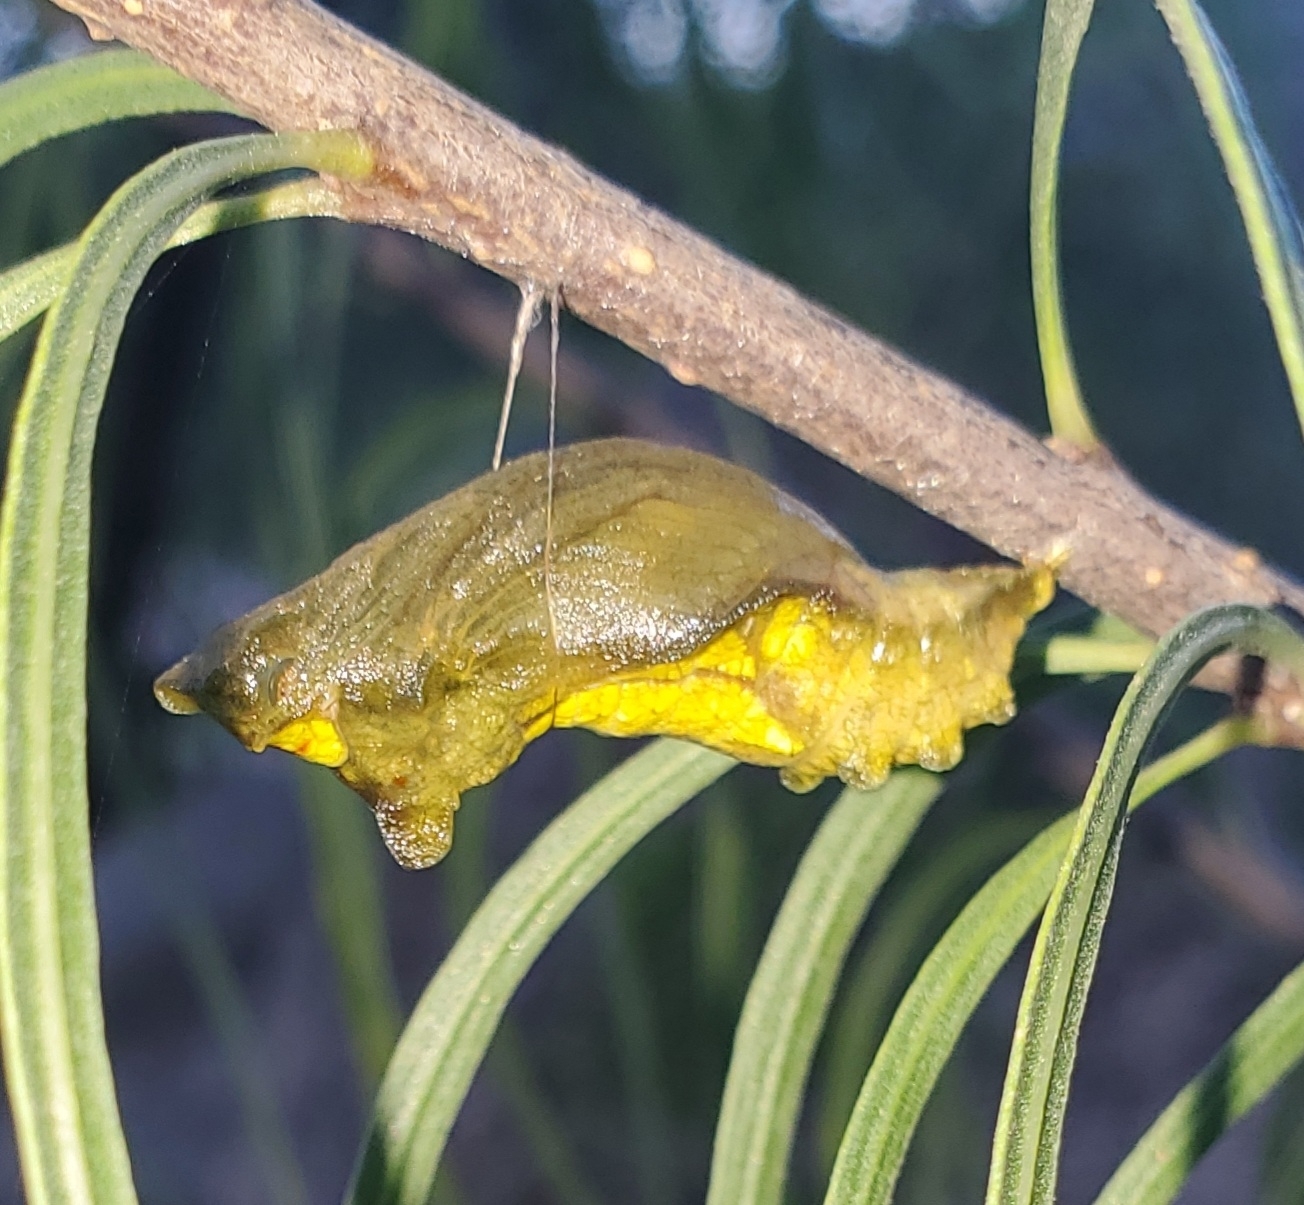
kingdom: Animalia
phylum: Arthropoda
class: Insecta
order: Lepidoptera
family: Papilionidae
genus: Battus
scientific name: Battus philenor
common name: Pipevine swallowtail
